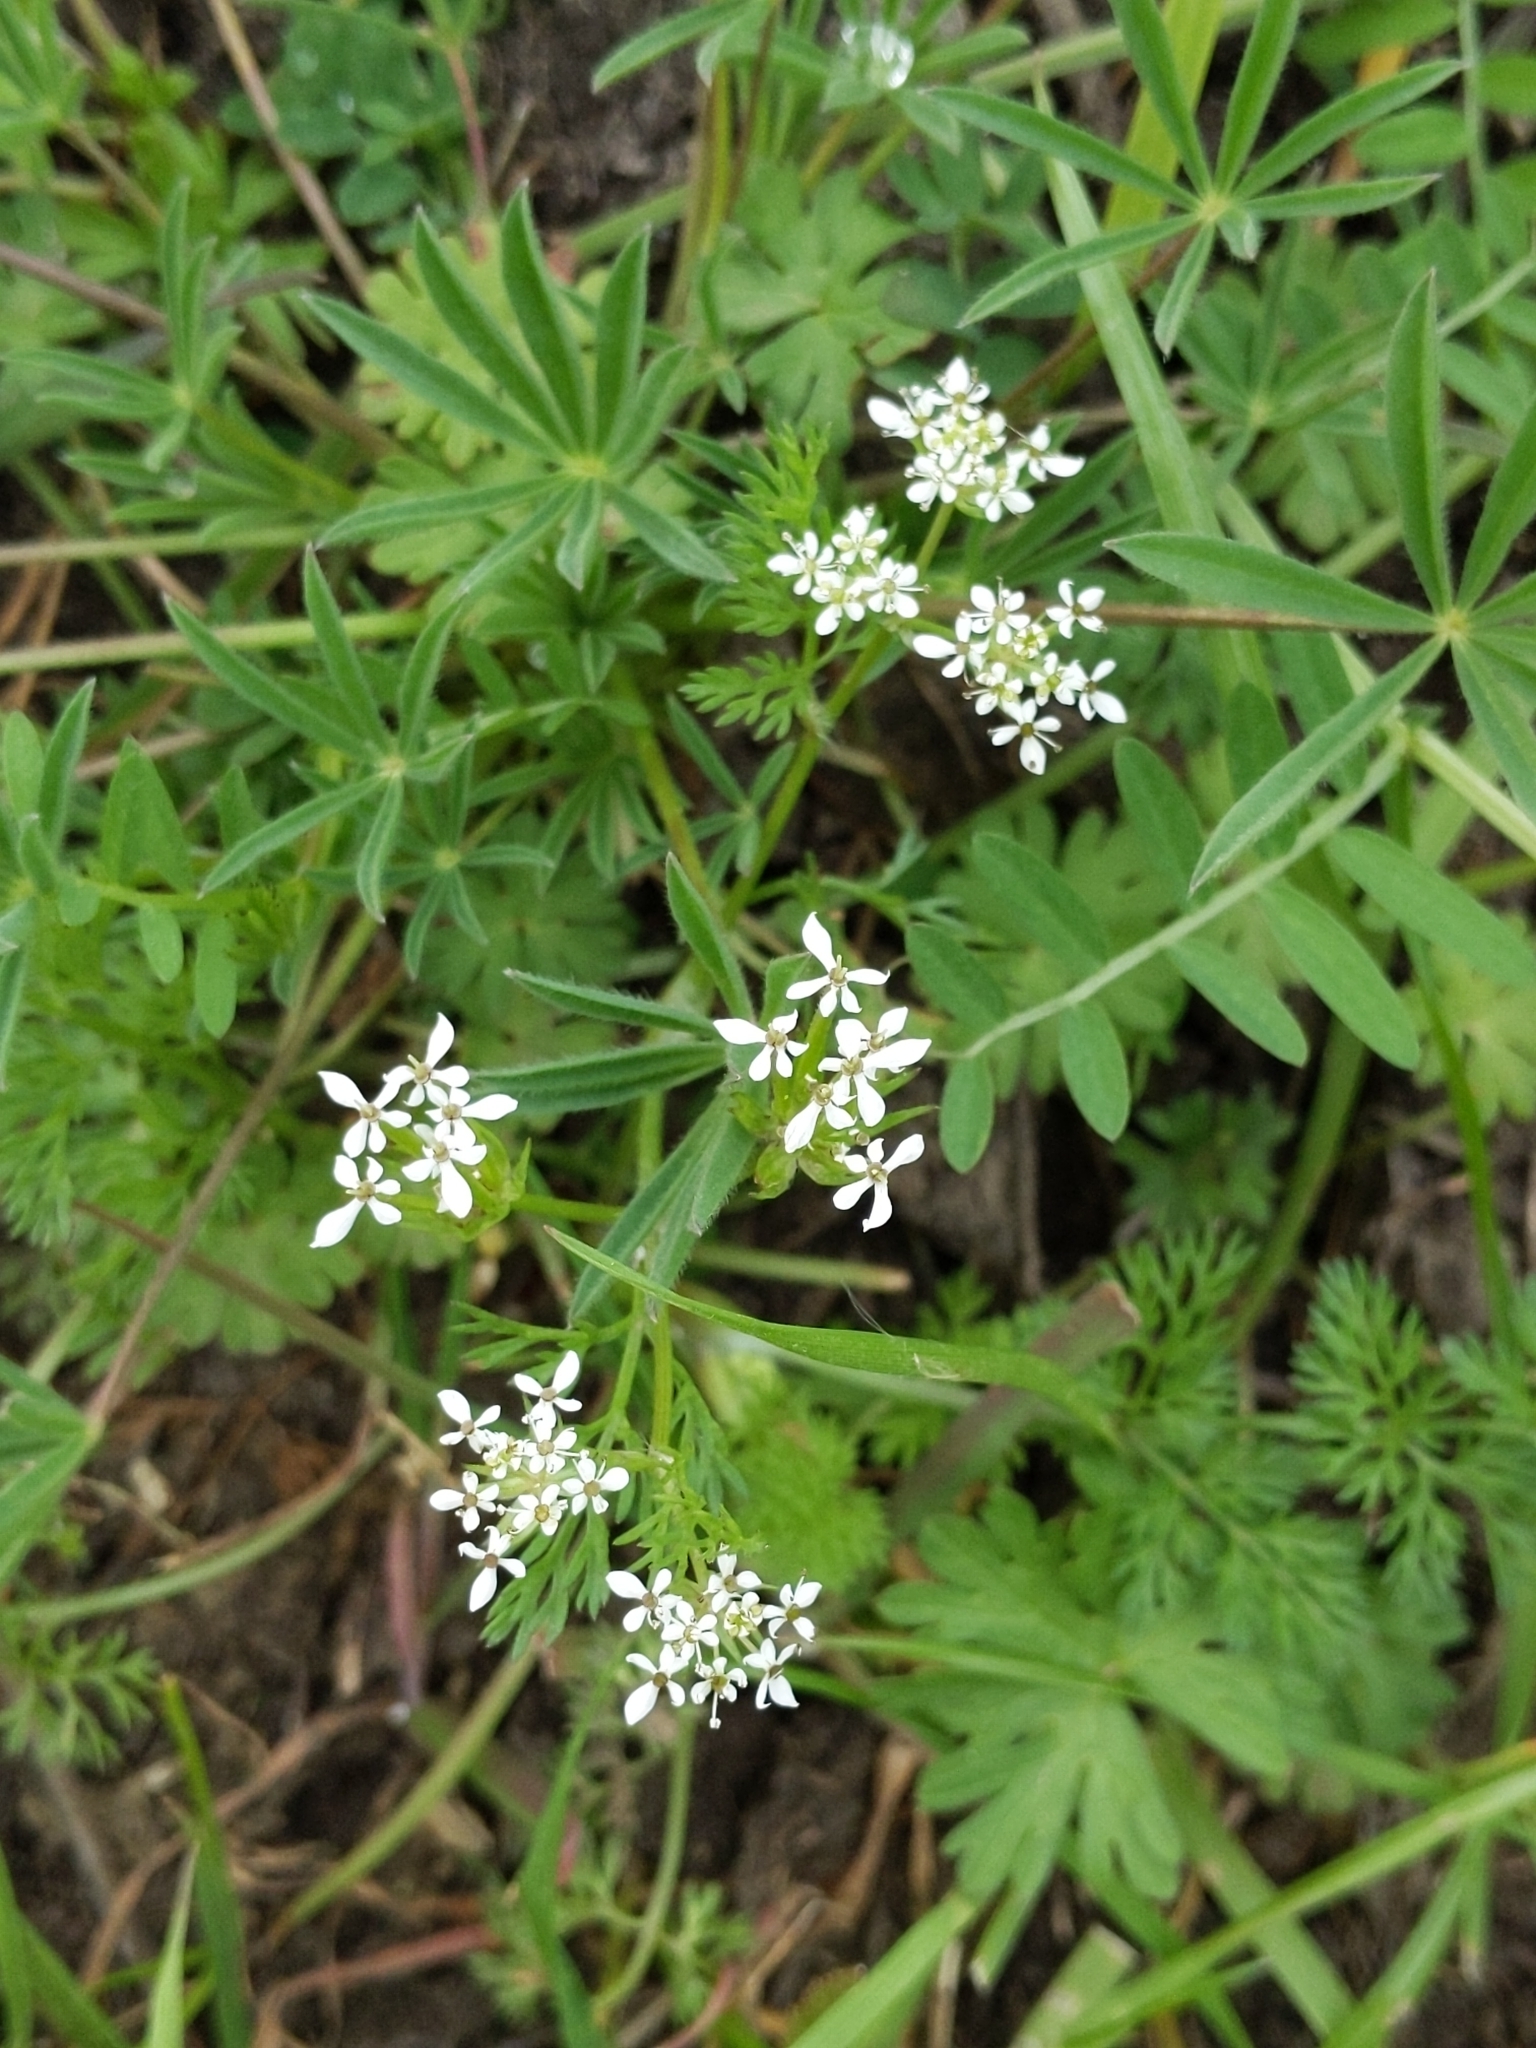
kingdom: Plantae
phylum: Tracheophyta
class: Magnoliopsida
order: Apiales
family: Apiaceae
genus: Scandix
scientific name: Scandix pecten-veneris
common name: Shepherd's-needle
